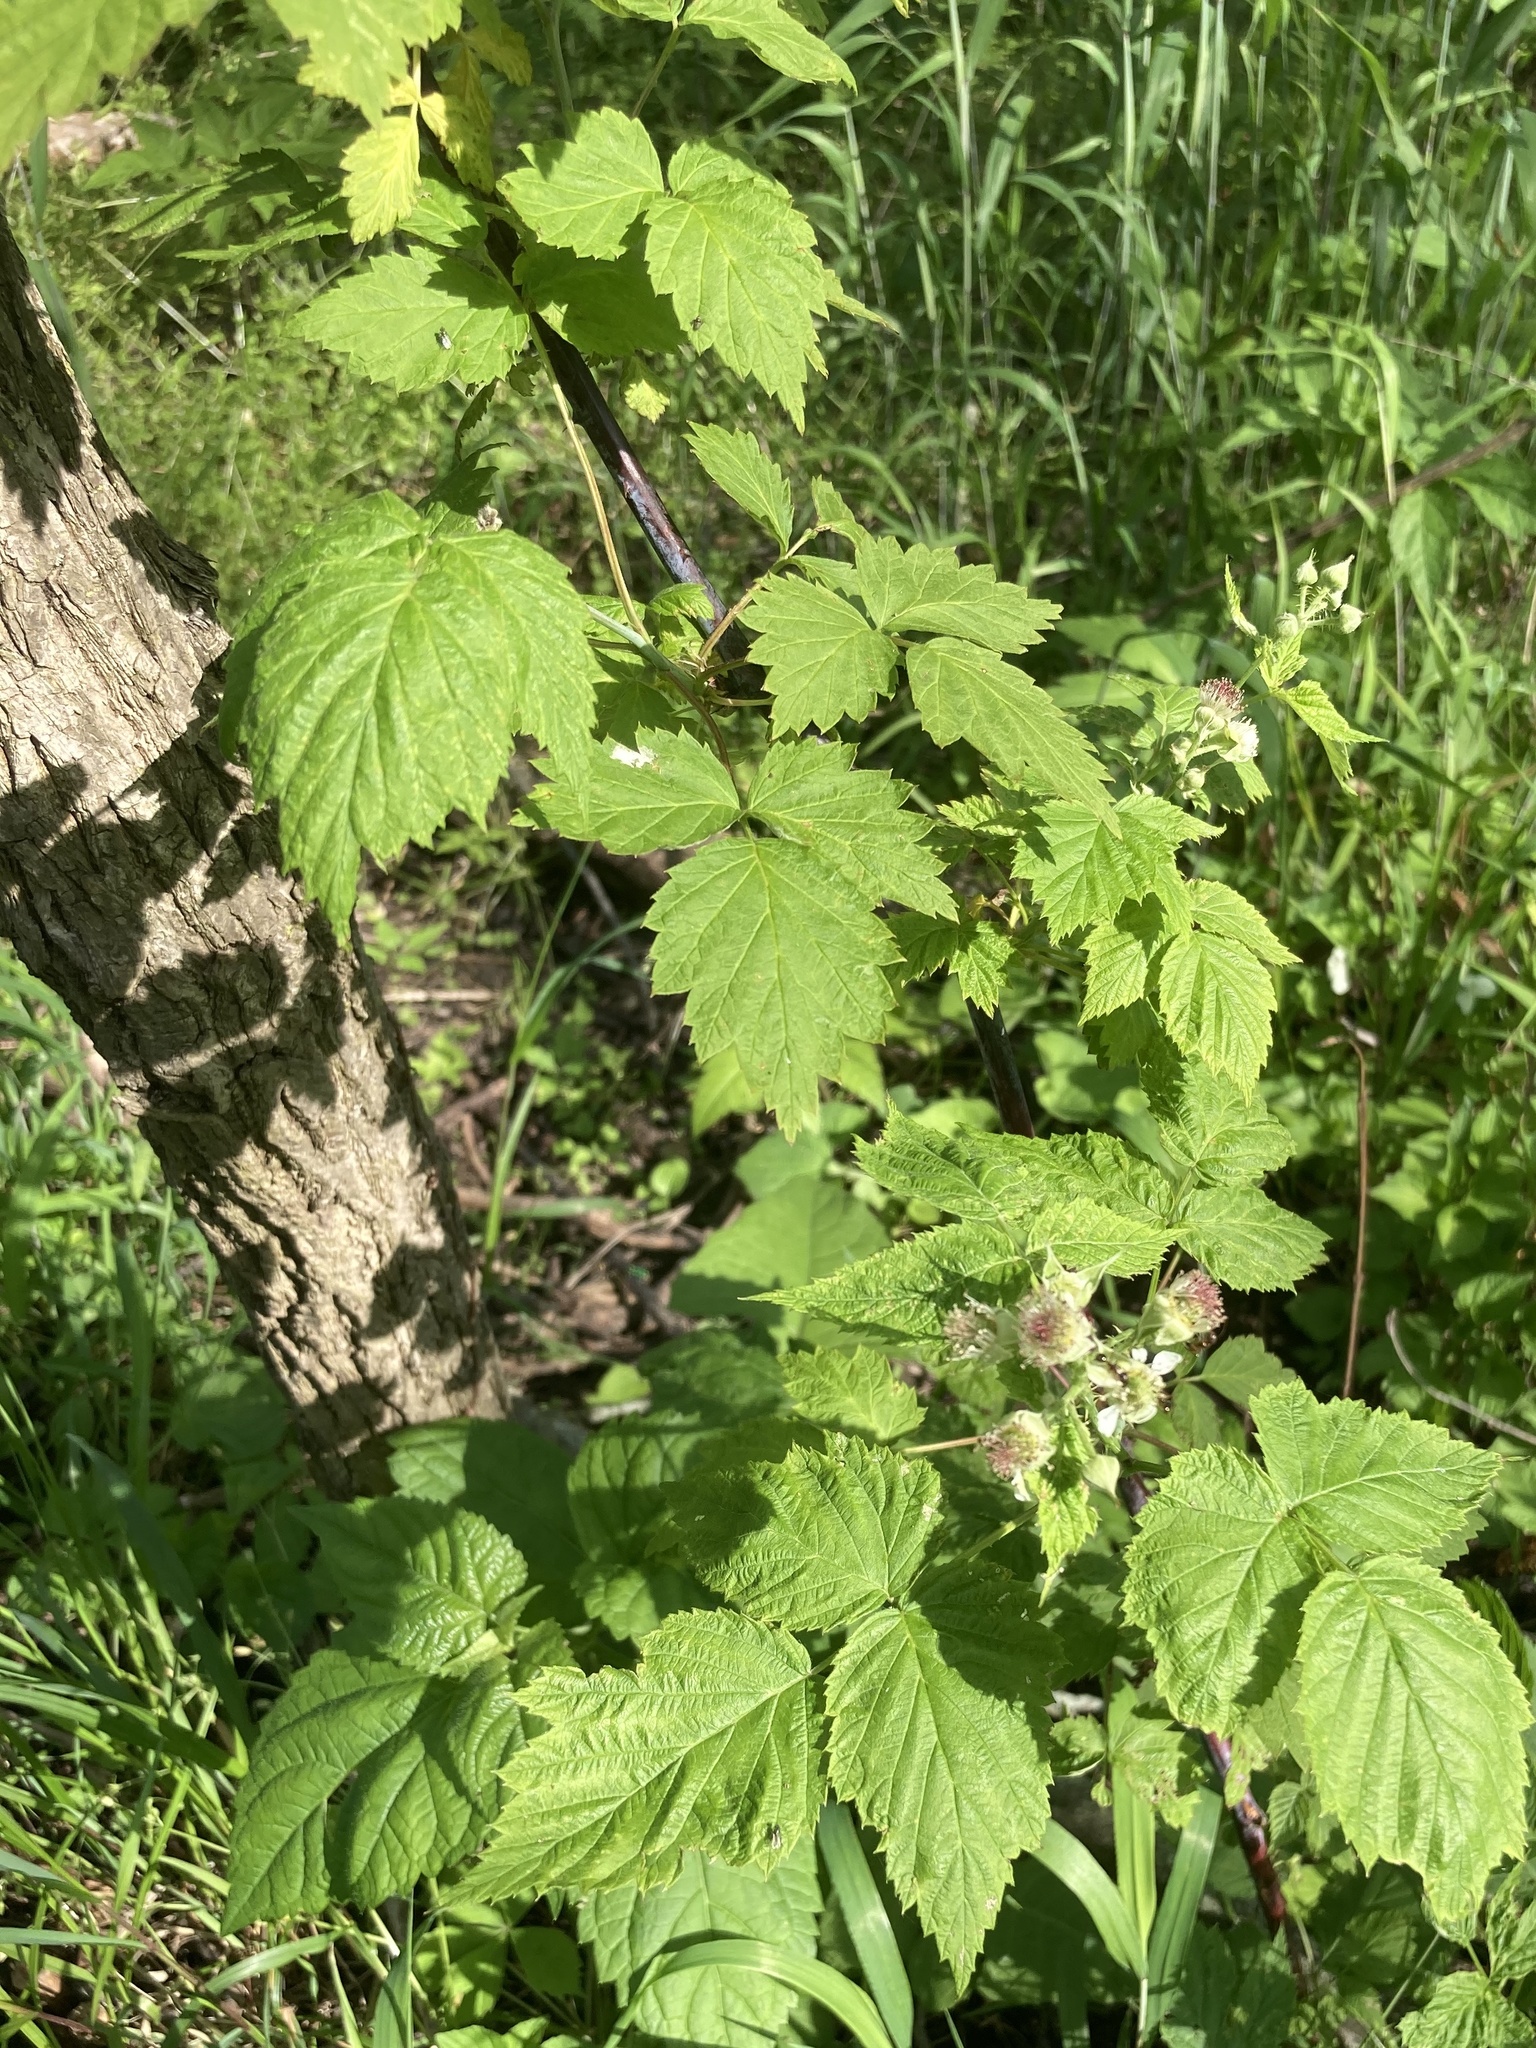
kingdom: Plantae
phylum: Tracheophyta
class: Magnoliopsida
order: Rosales
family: Rosaceae
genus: Rubus
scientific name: Rubus occidentalis
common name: Black raspberry
